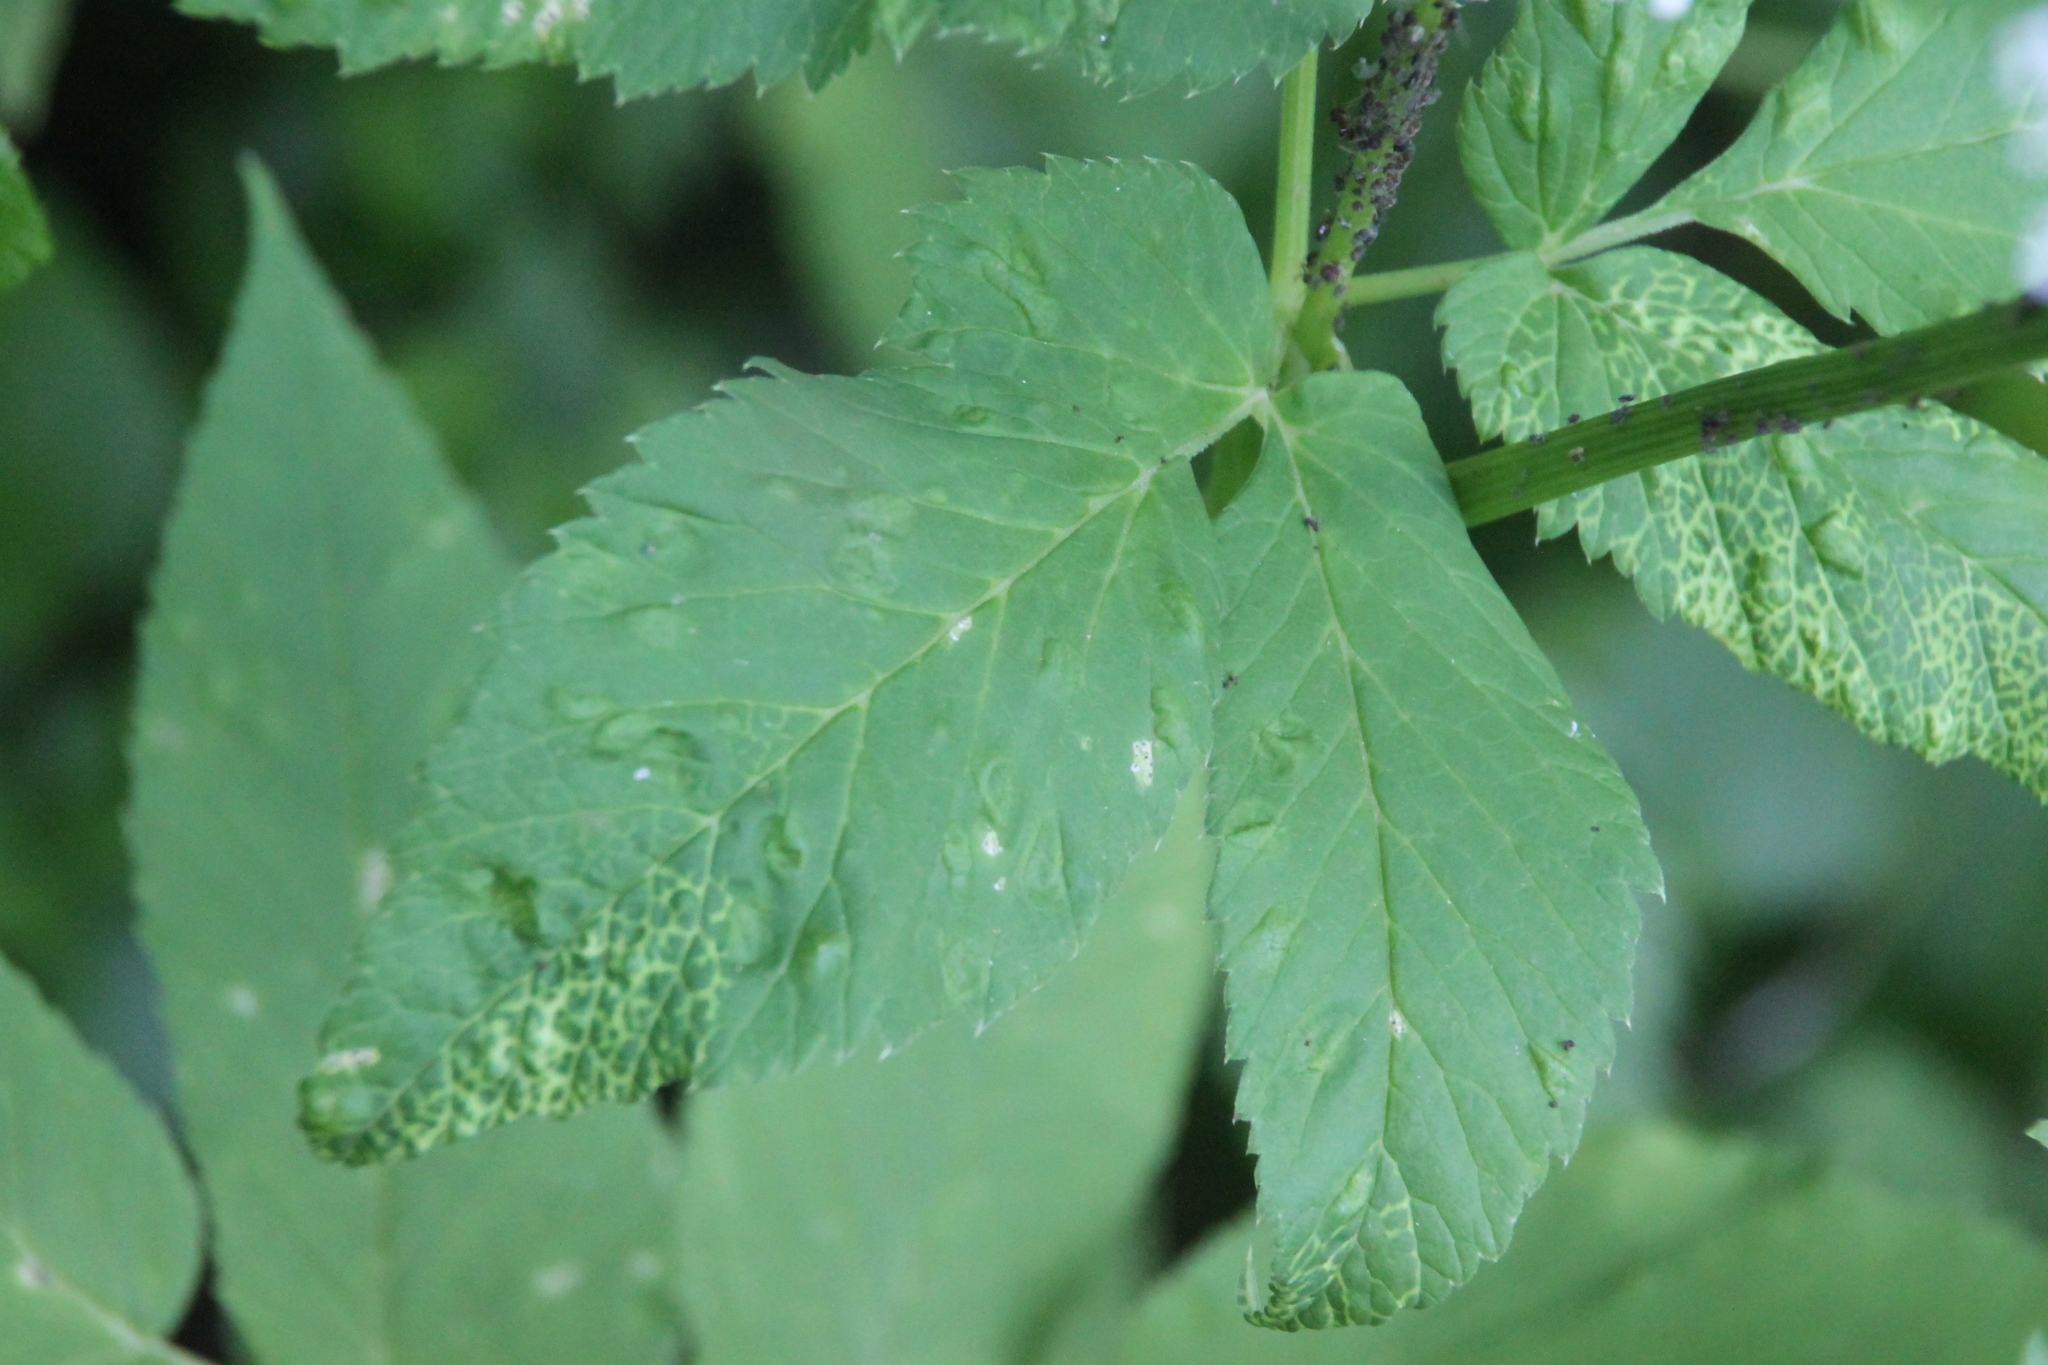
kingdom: Plantae
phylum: Tracheophyta
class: Magnoliopsida
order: Apiales
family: Apiaceae
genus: Aegopodium
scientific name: Aegopodium podagraria
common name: Ground-elder
